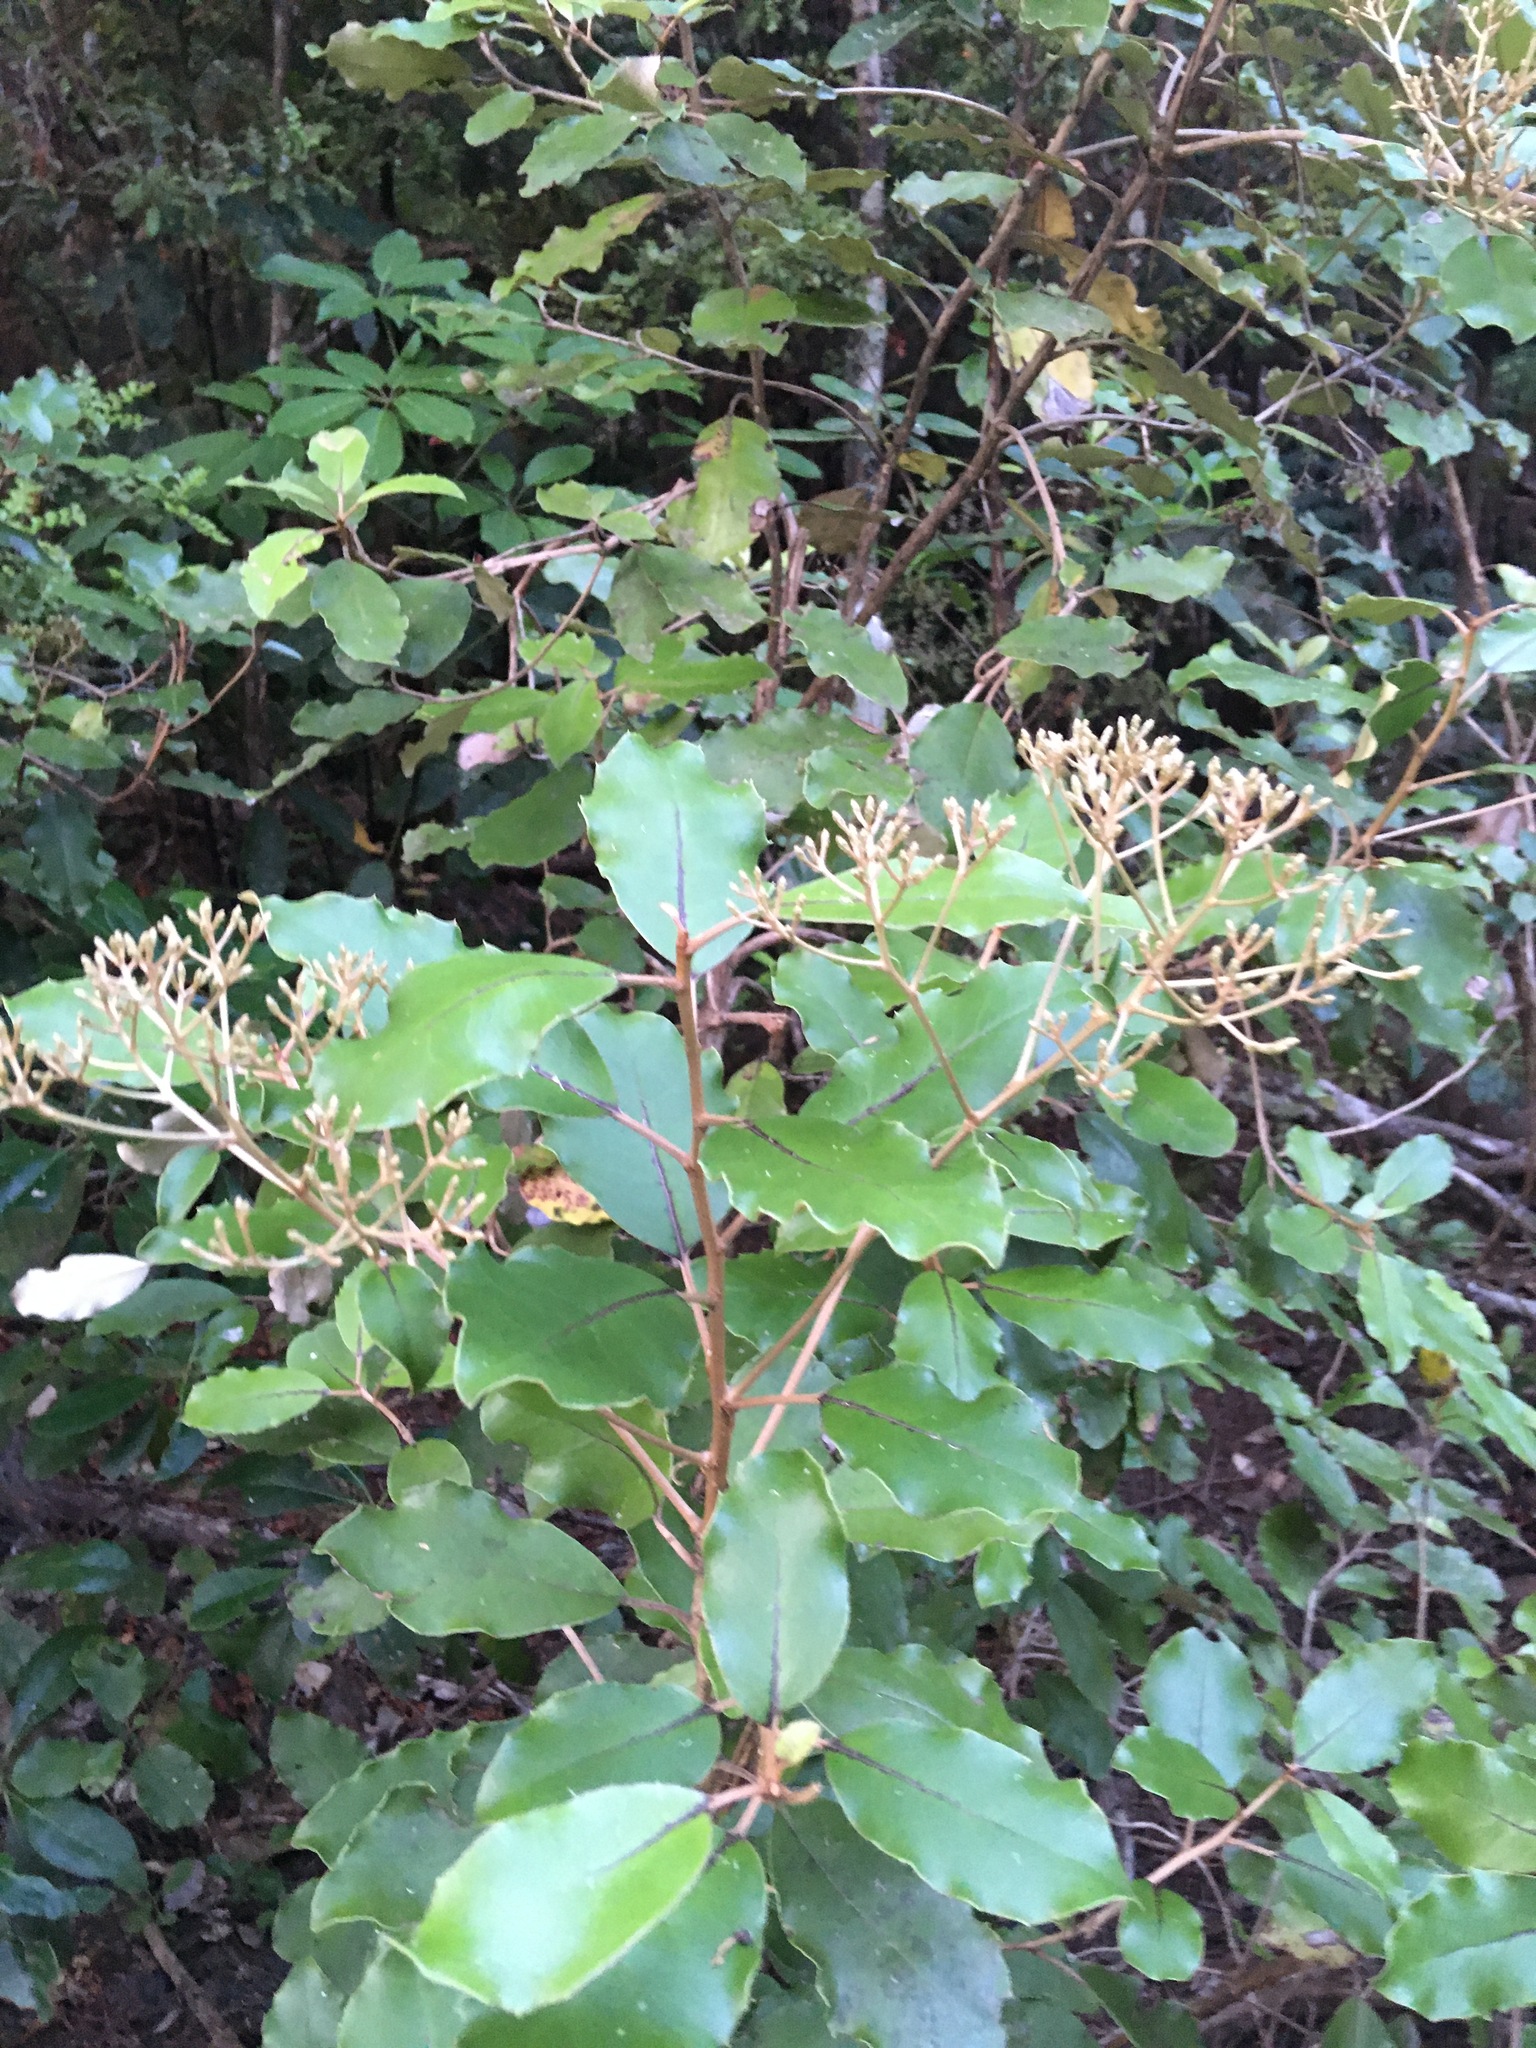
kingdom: Plantae
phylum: Tracheophyta
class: Magnoliopsida
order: Asterales
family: Asteraceae
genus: Olearia
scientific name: Olearia furfuracea
